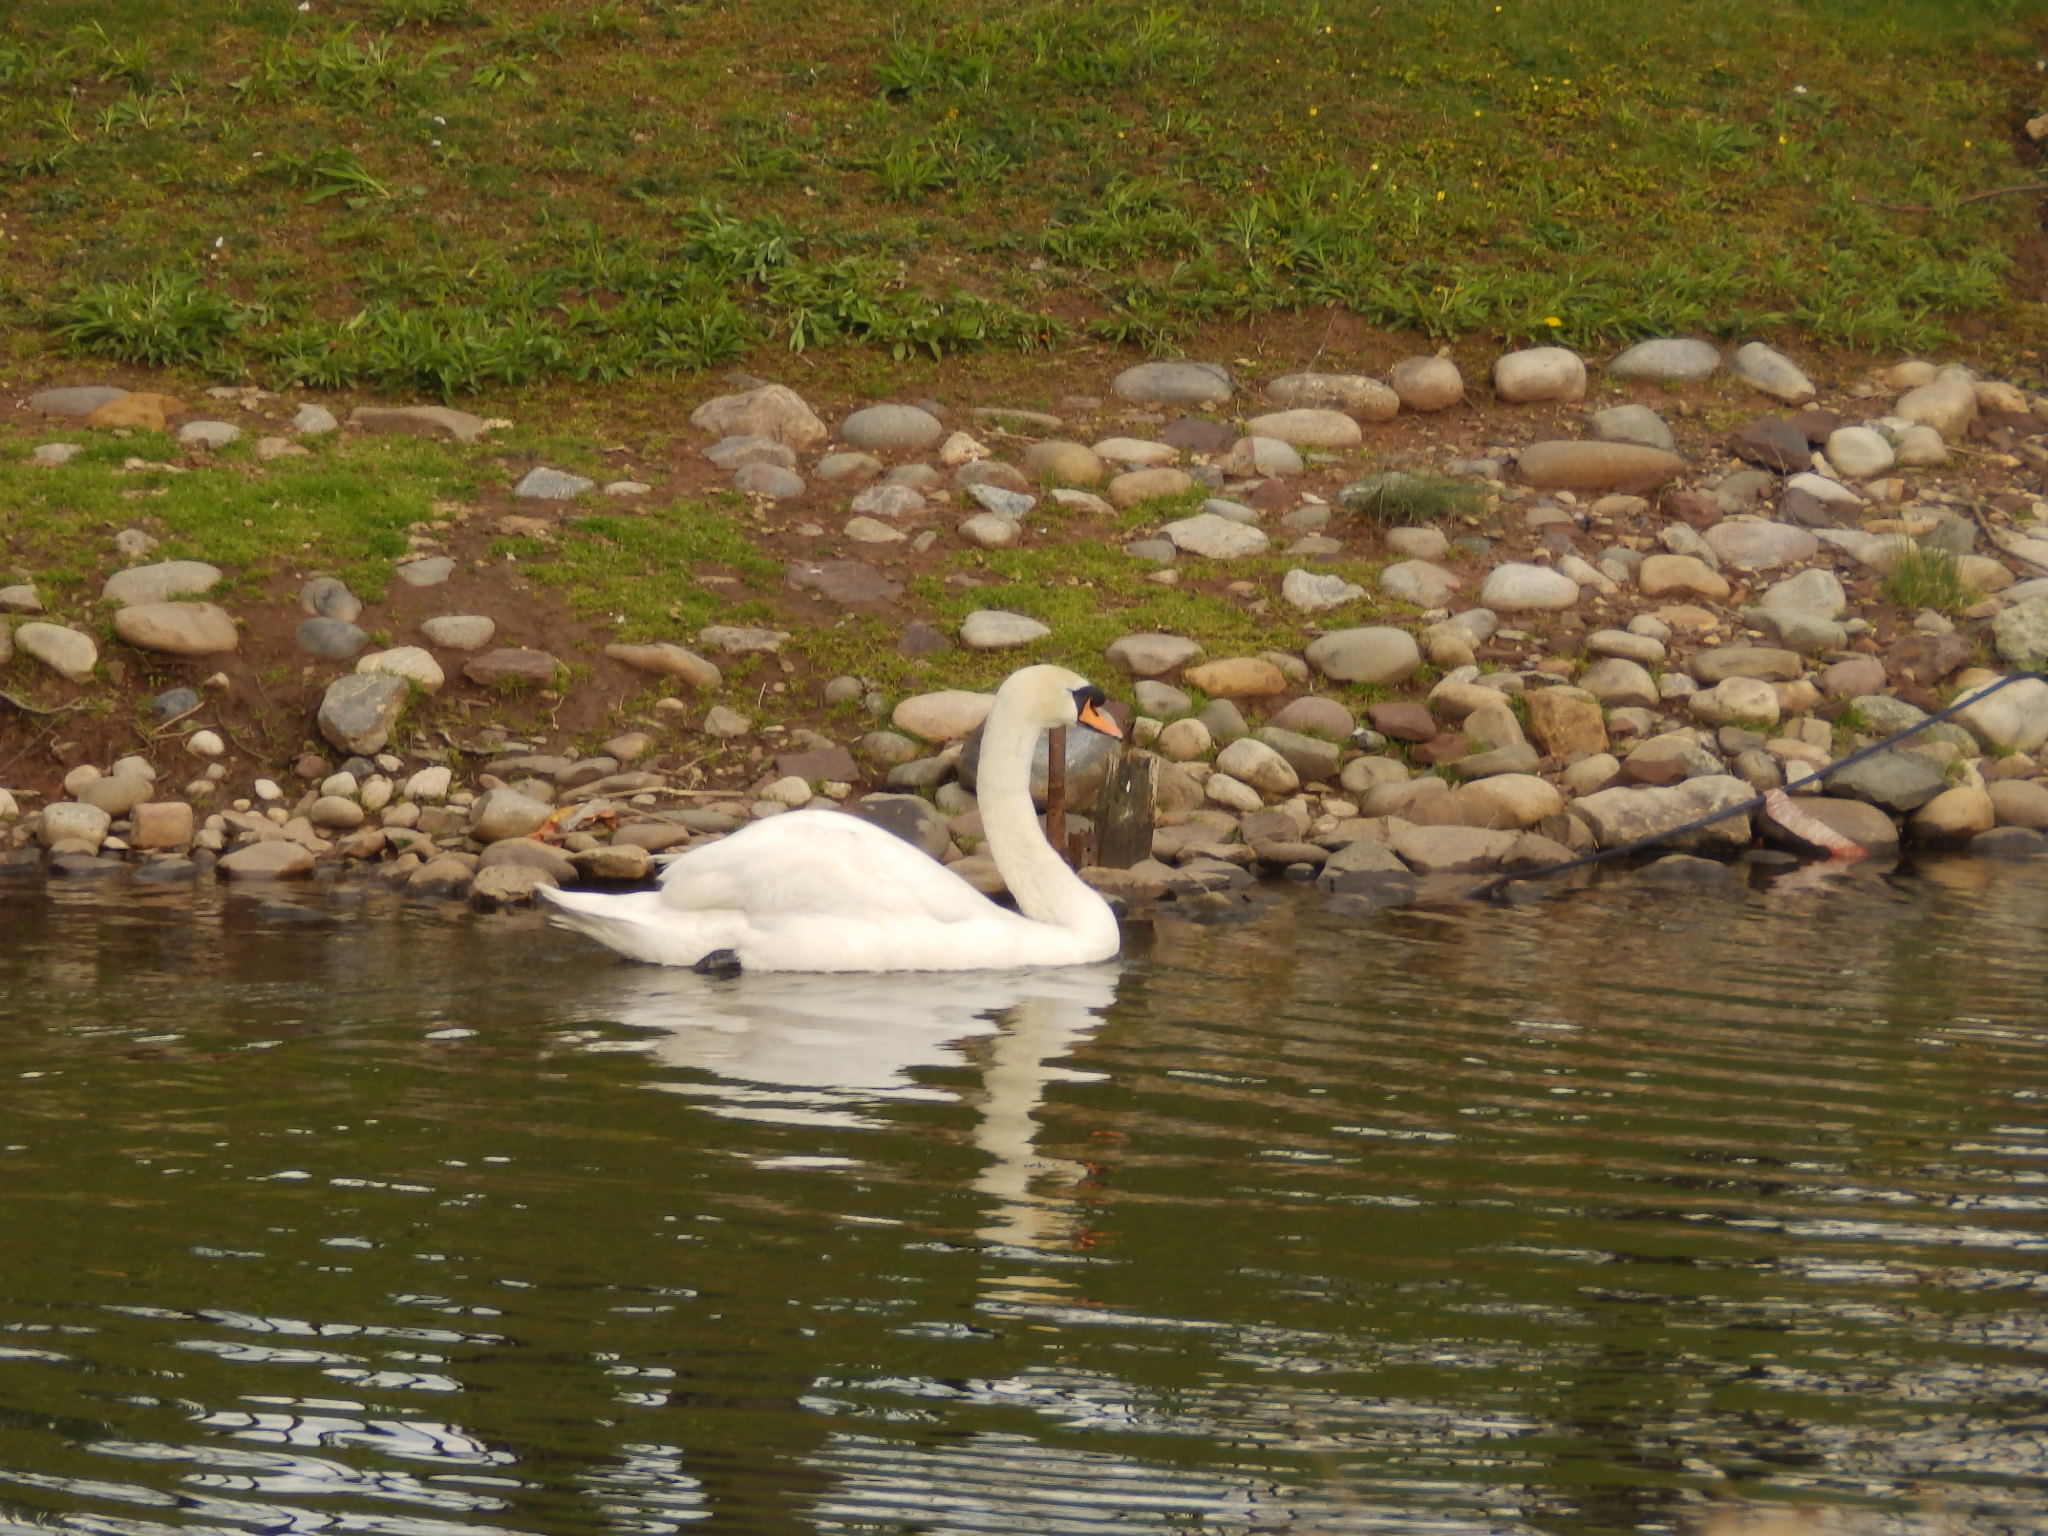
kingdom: Animalia
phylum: Chordata
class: Aves
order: Anseriformes
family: Anatidae
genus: Cygnus
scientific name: Cygnus olor
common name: Mute swan
